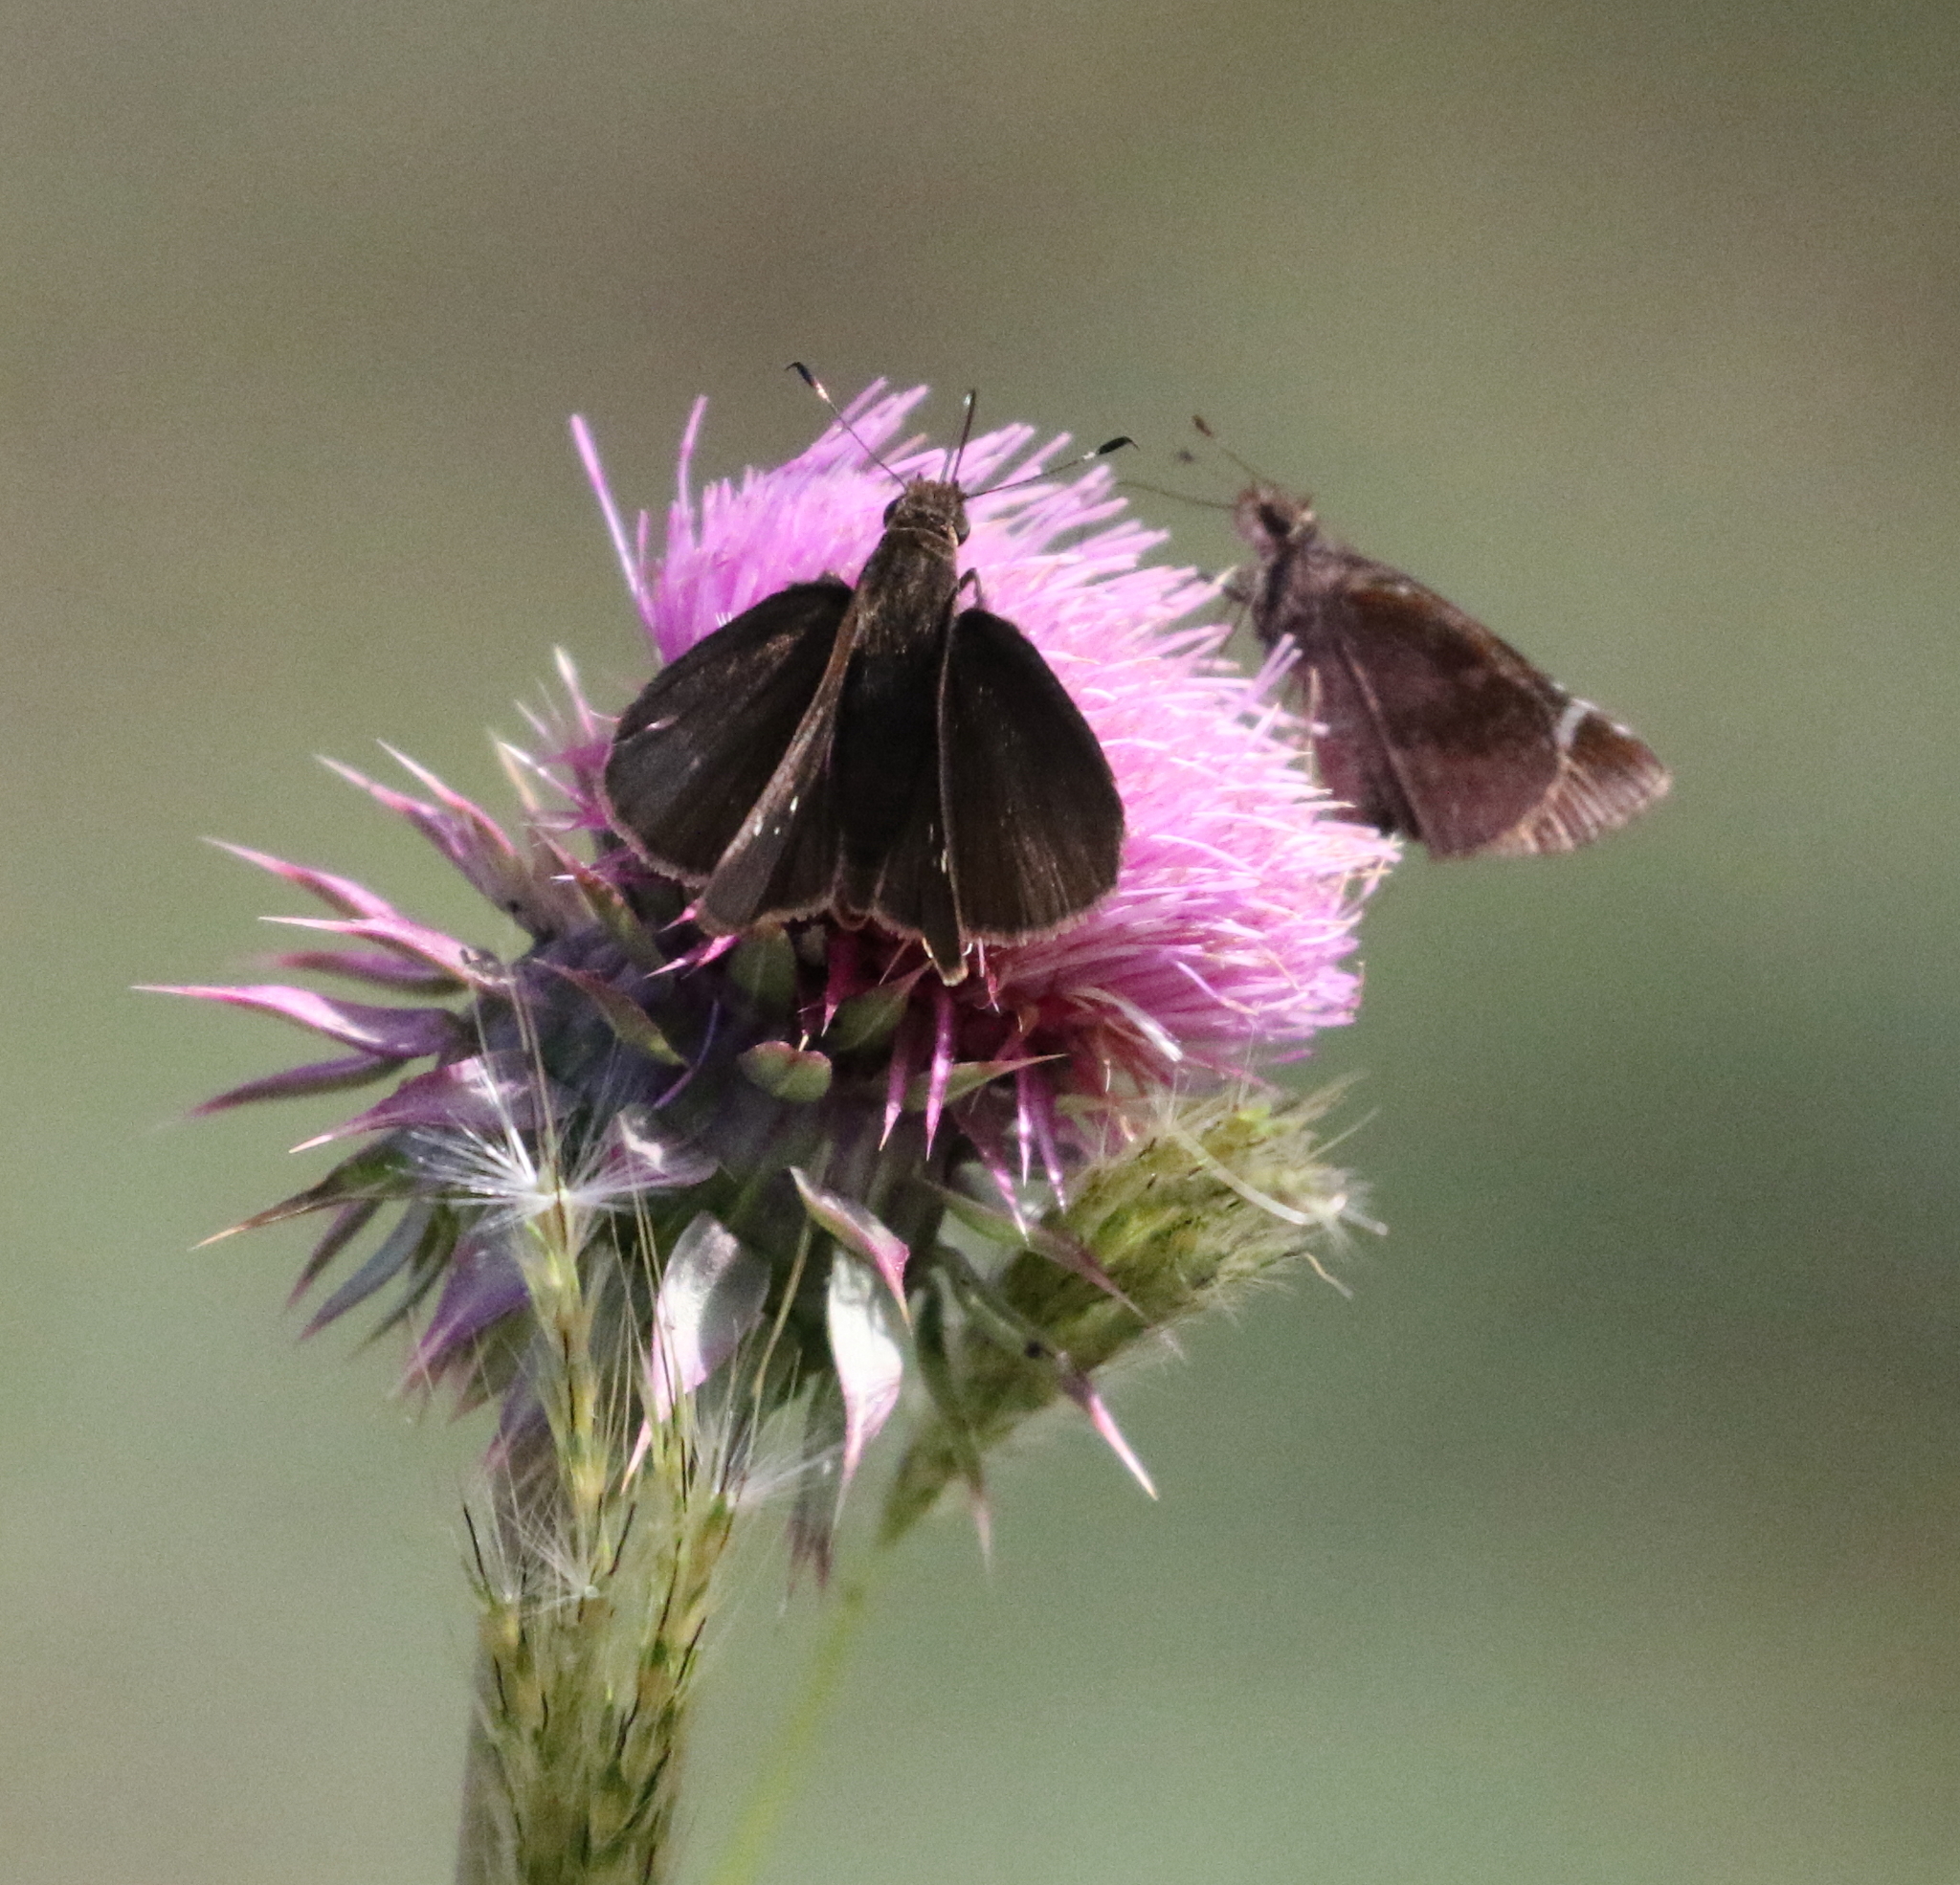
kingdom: Animalia
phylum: Arthropoda
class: Insecta
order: Lepidoptera
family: Hesperiidae
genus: Lerema
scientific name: Lerema accius
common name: Clouded skipper
